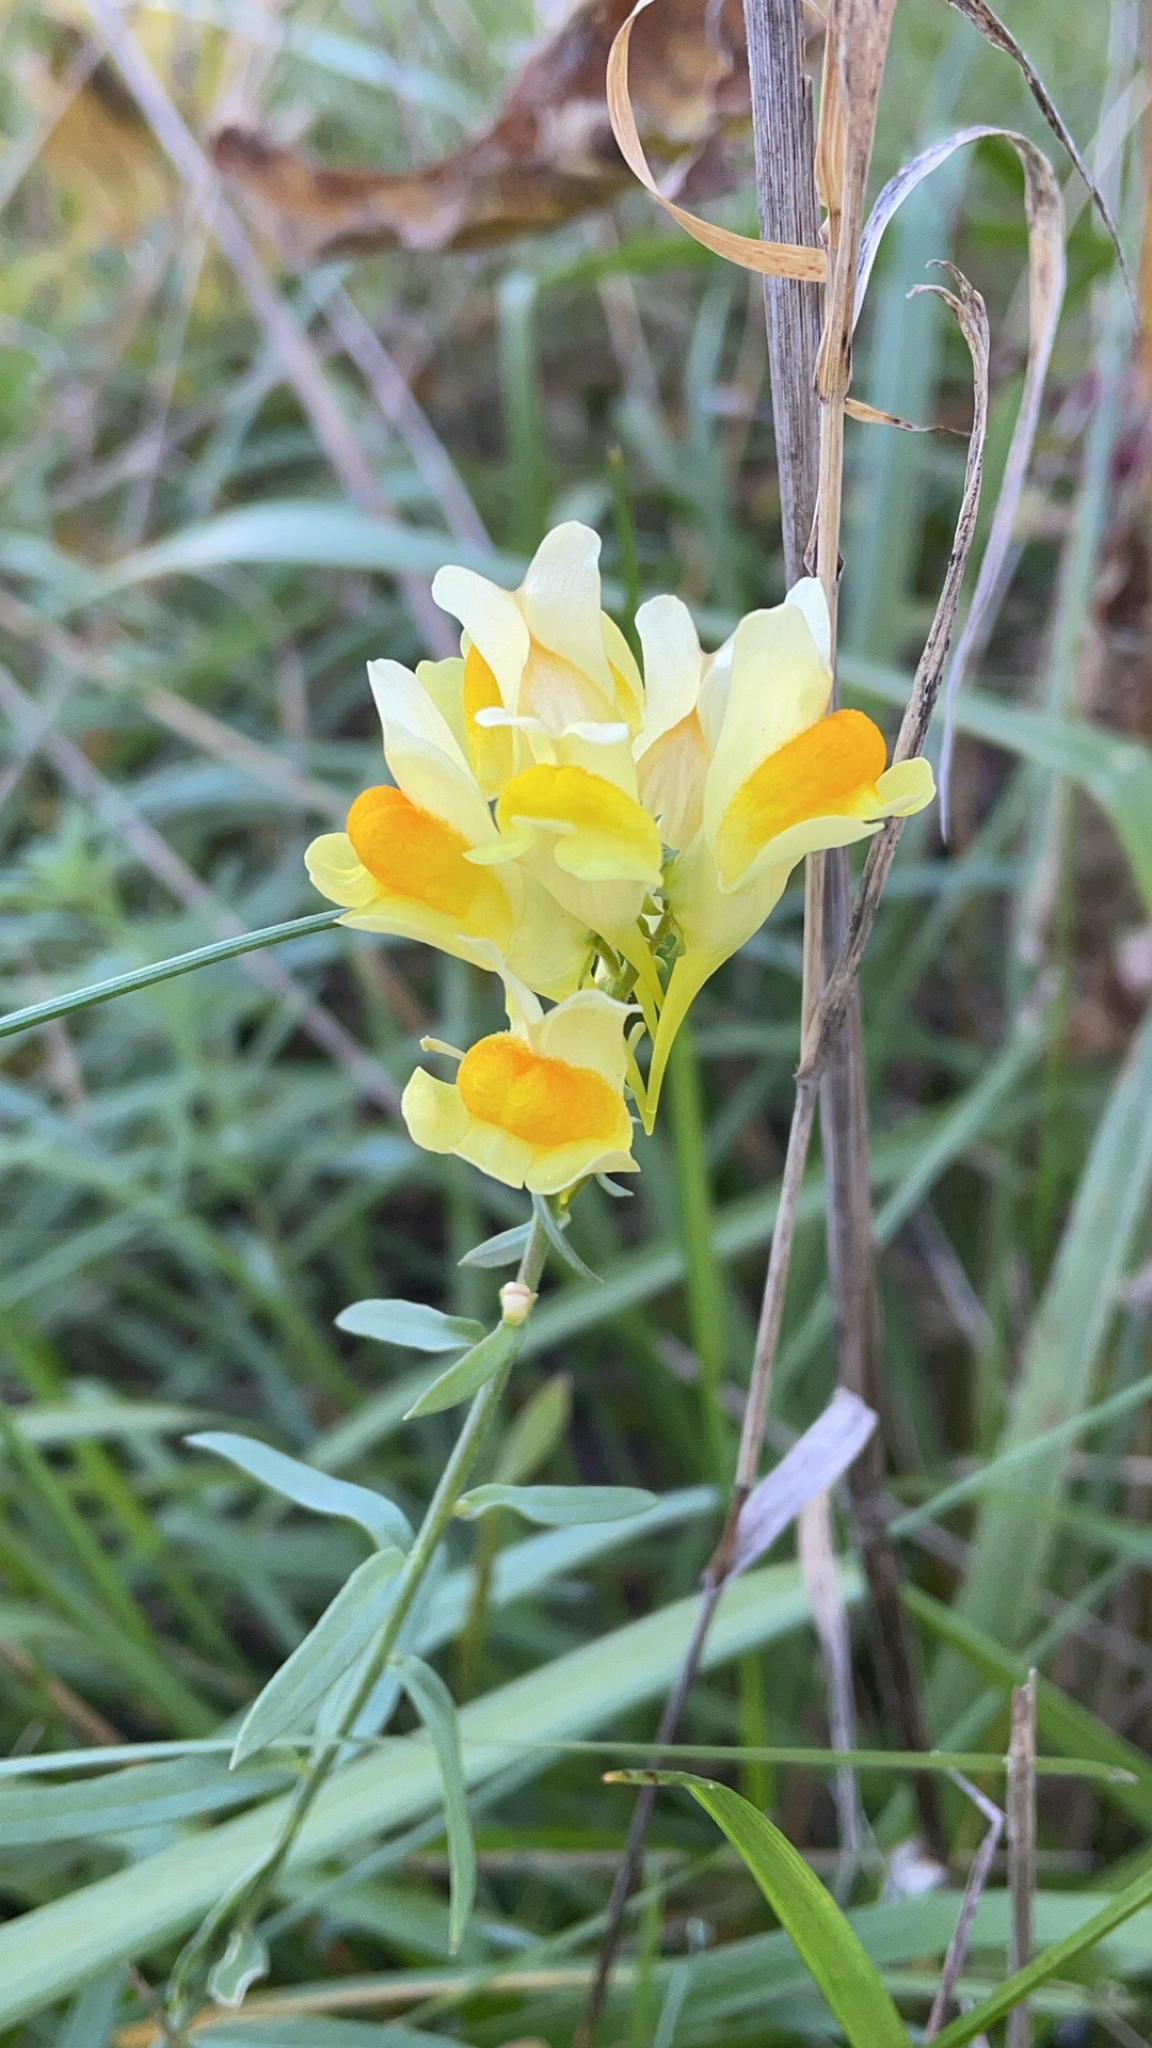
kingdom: Plantae
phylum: Tracheophyta
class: Magnoliopsida
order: Lamiales
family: Plantaginaceae
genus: Linaria
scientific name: Linaria vulgaris
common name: Butter and eggs
